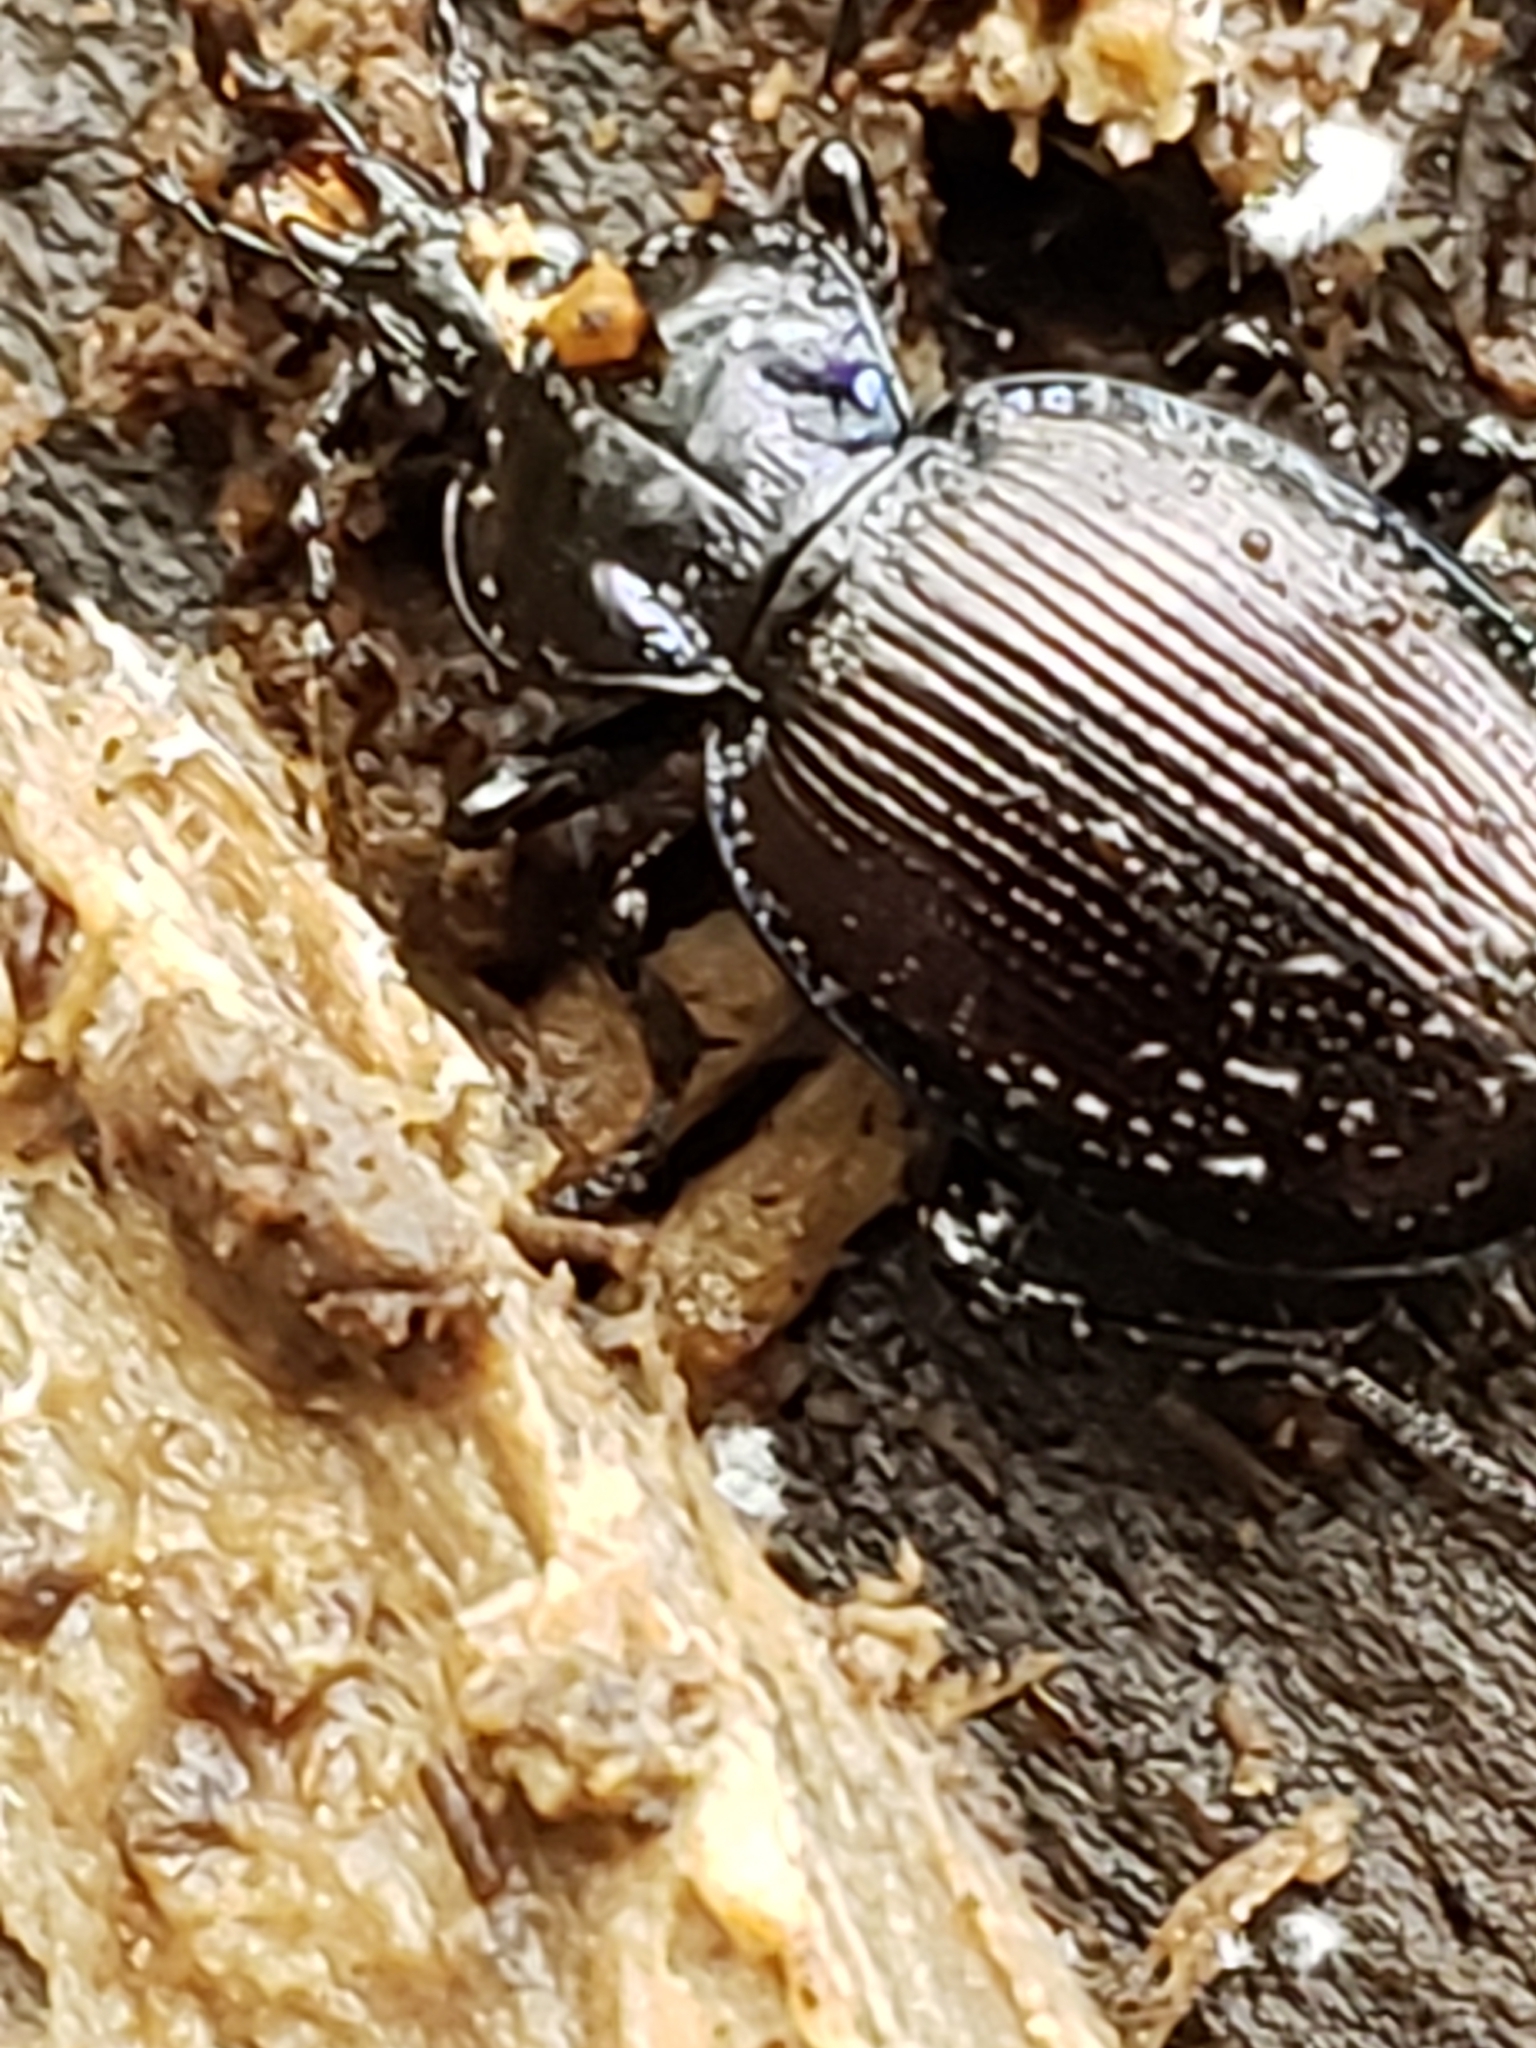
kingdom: Animalia
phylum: Arthropoda
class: Insecta
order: Coleoptera
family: Carabidae
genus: Sphaeroderus
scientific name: Sphaeroderus stenostomus
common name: Small snail-eating ground beetle
